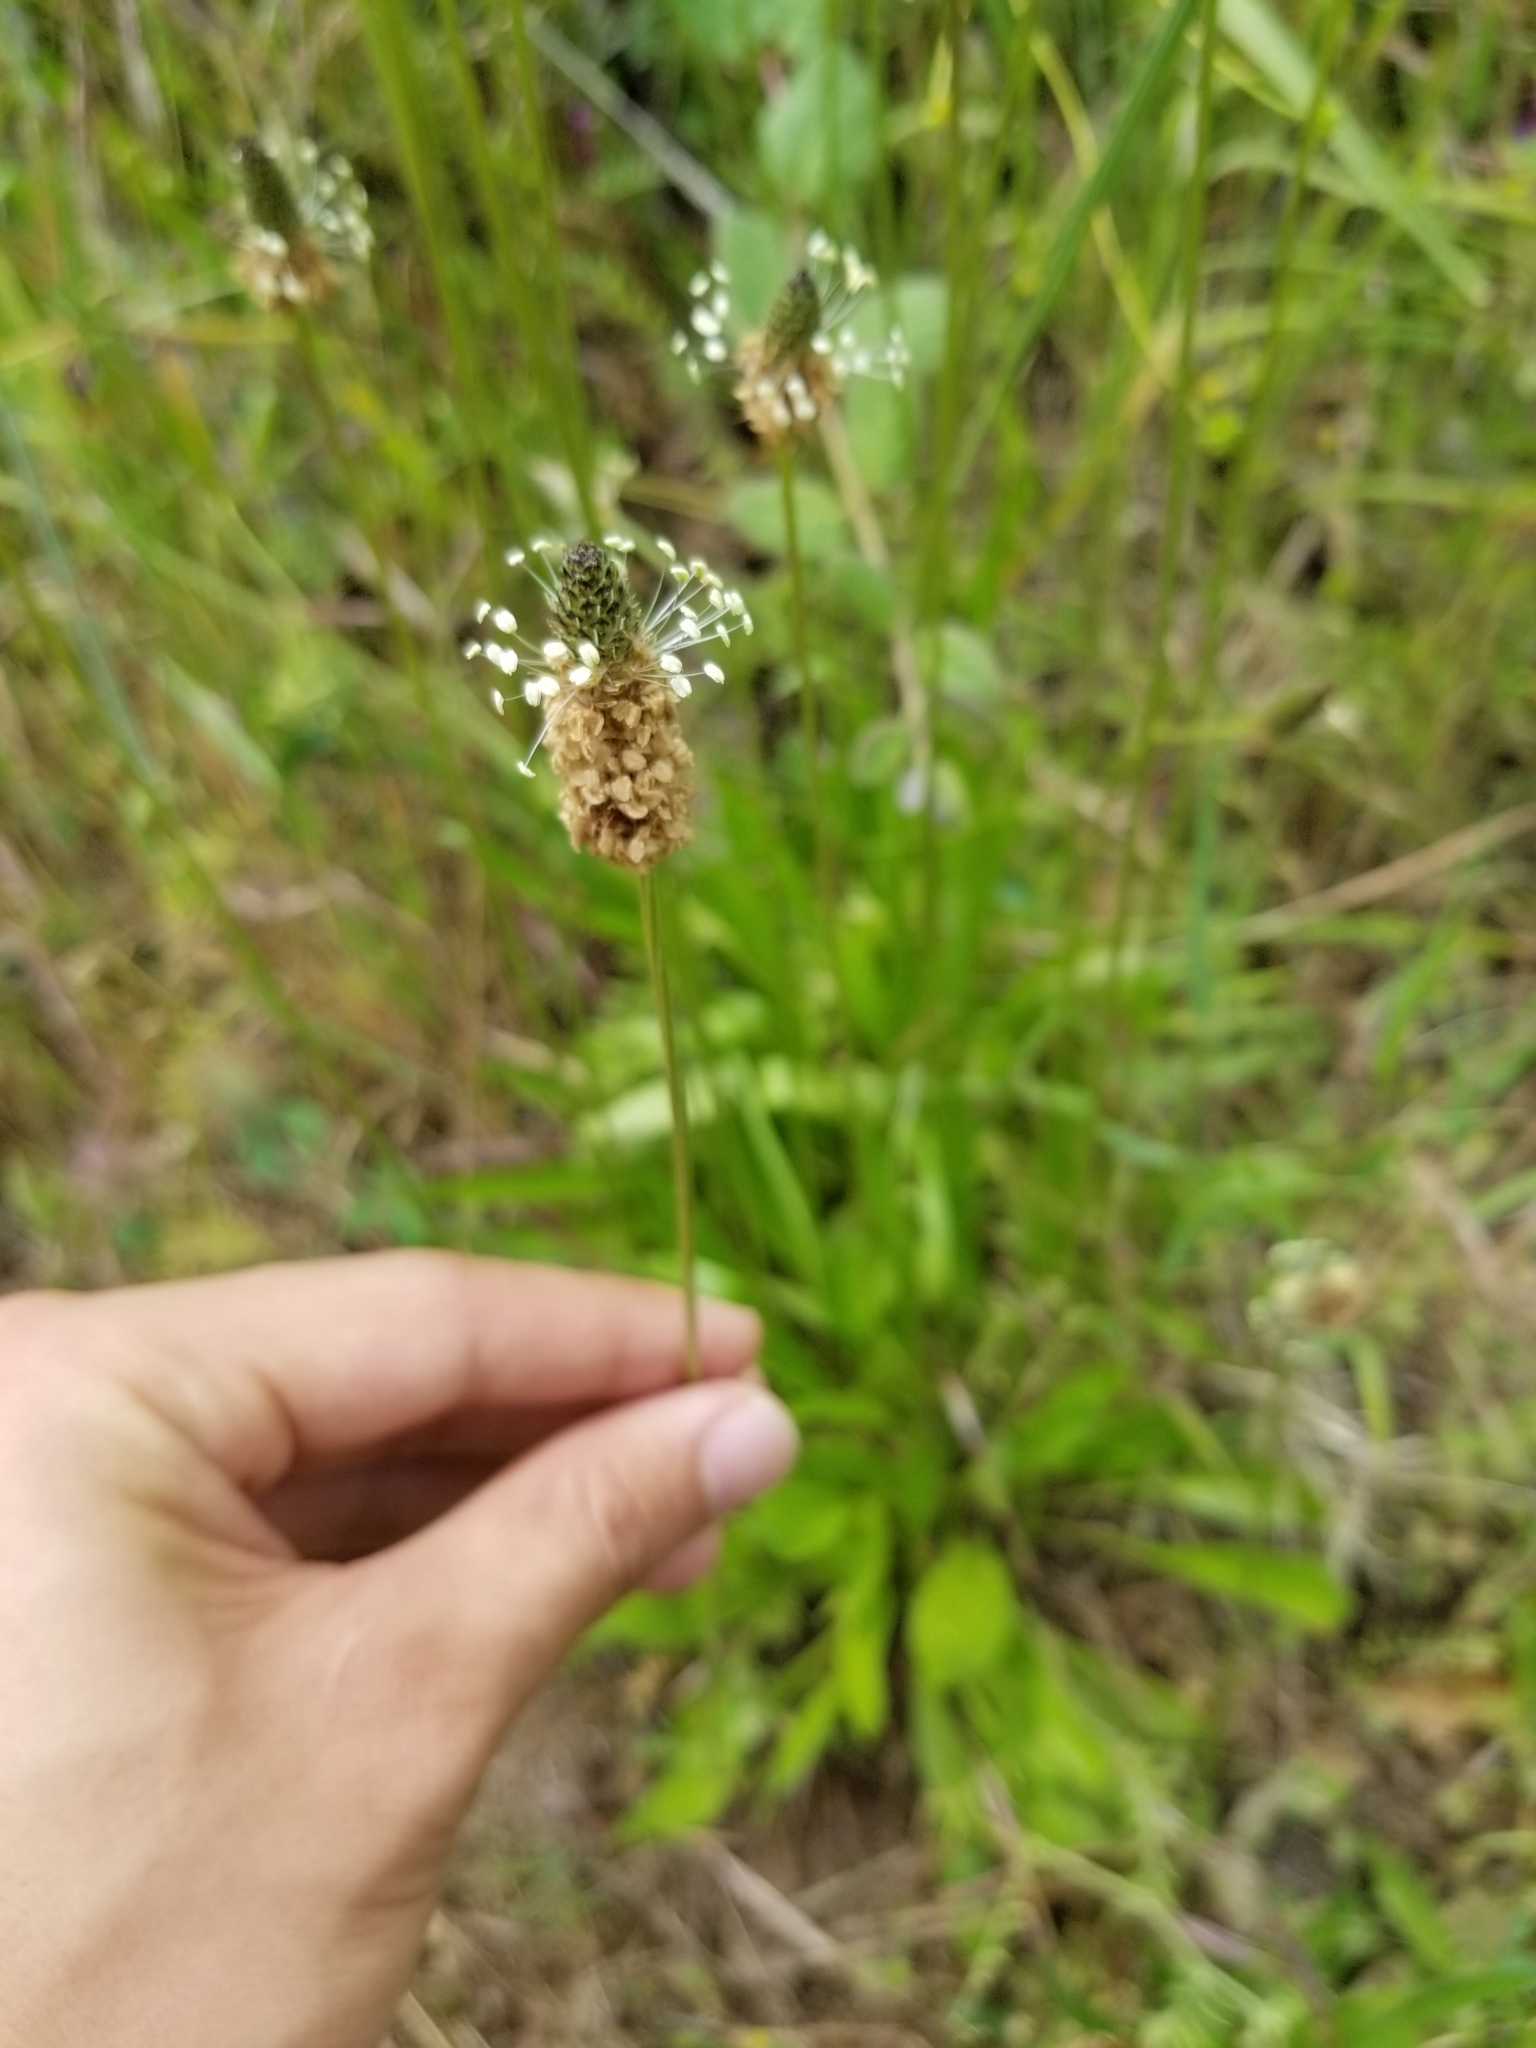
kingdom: Plantae
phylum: Tracheophyta
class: Magnoliopsida
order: Lamiales
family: Plantaginaceae
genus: Plantago
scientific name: Plantago lanceolata
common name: Ribwort plantain
